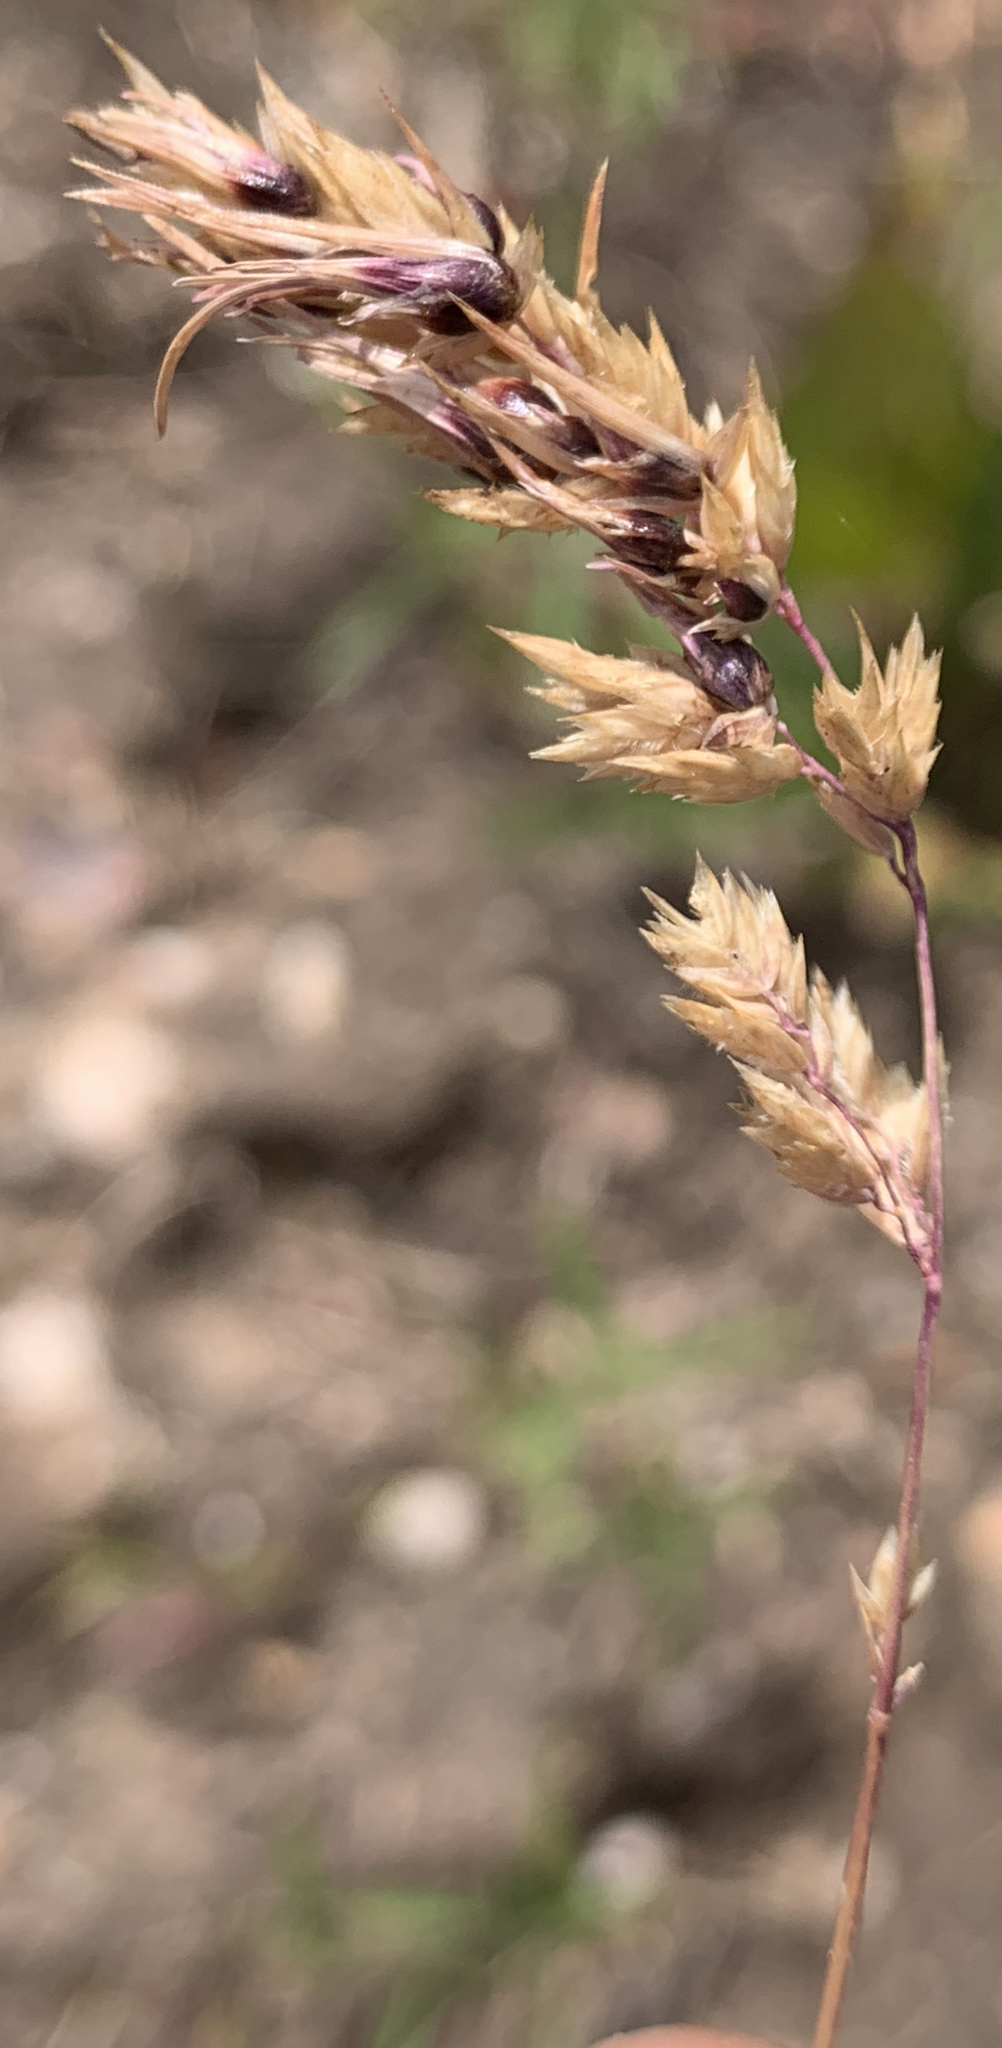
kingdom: Plantae
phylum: Tracheophyta
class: Liliopsida
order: Poales
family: Poaceae
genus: Poa
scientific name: Poa bulbosa
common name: Bulbous bluegrass
